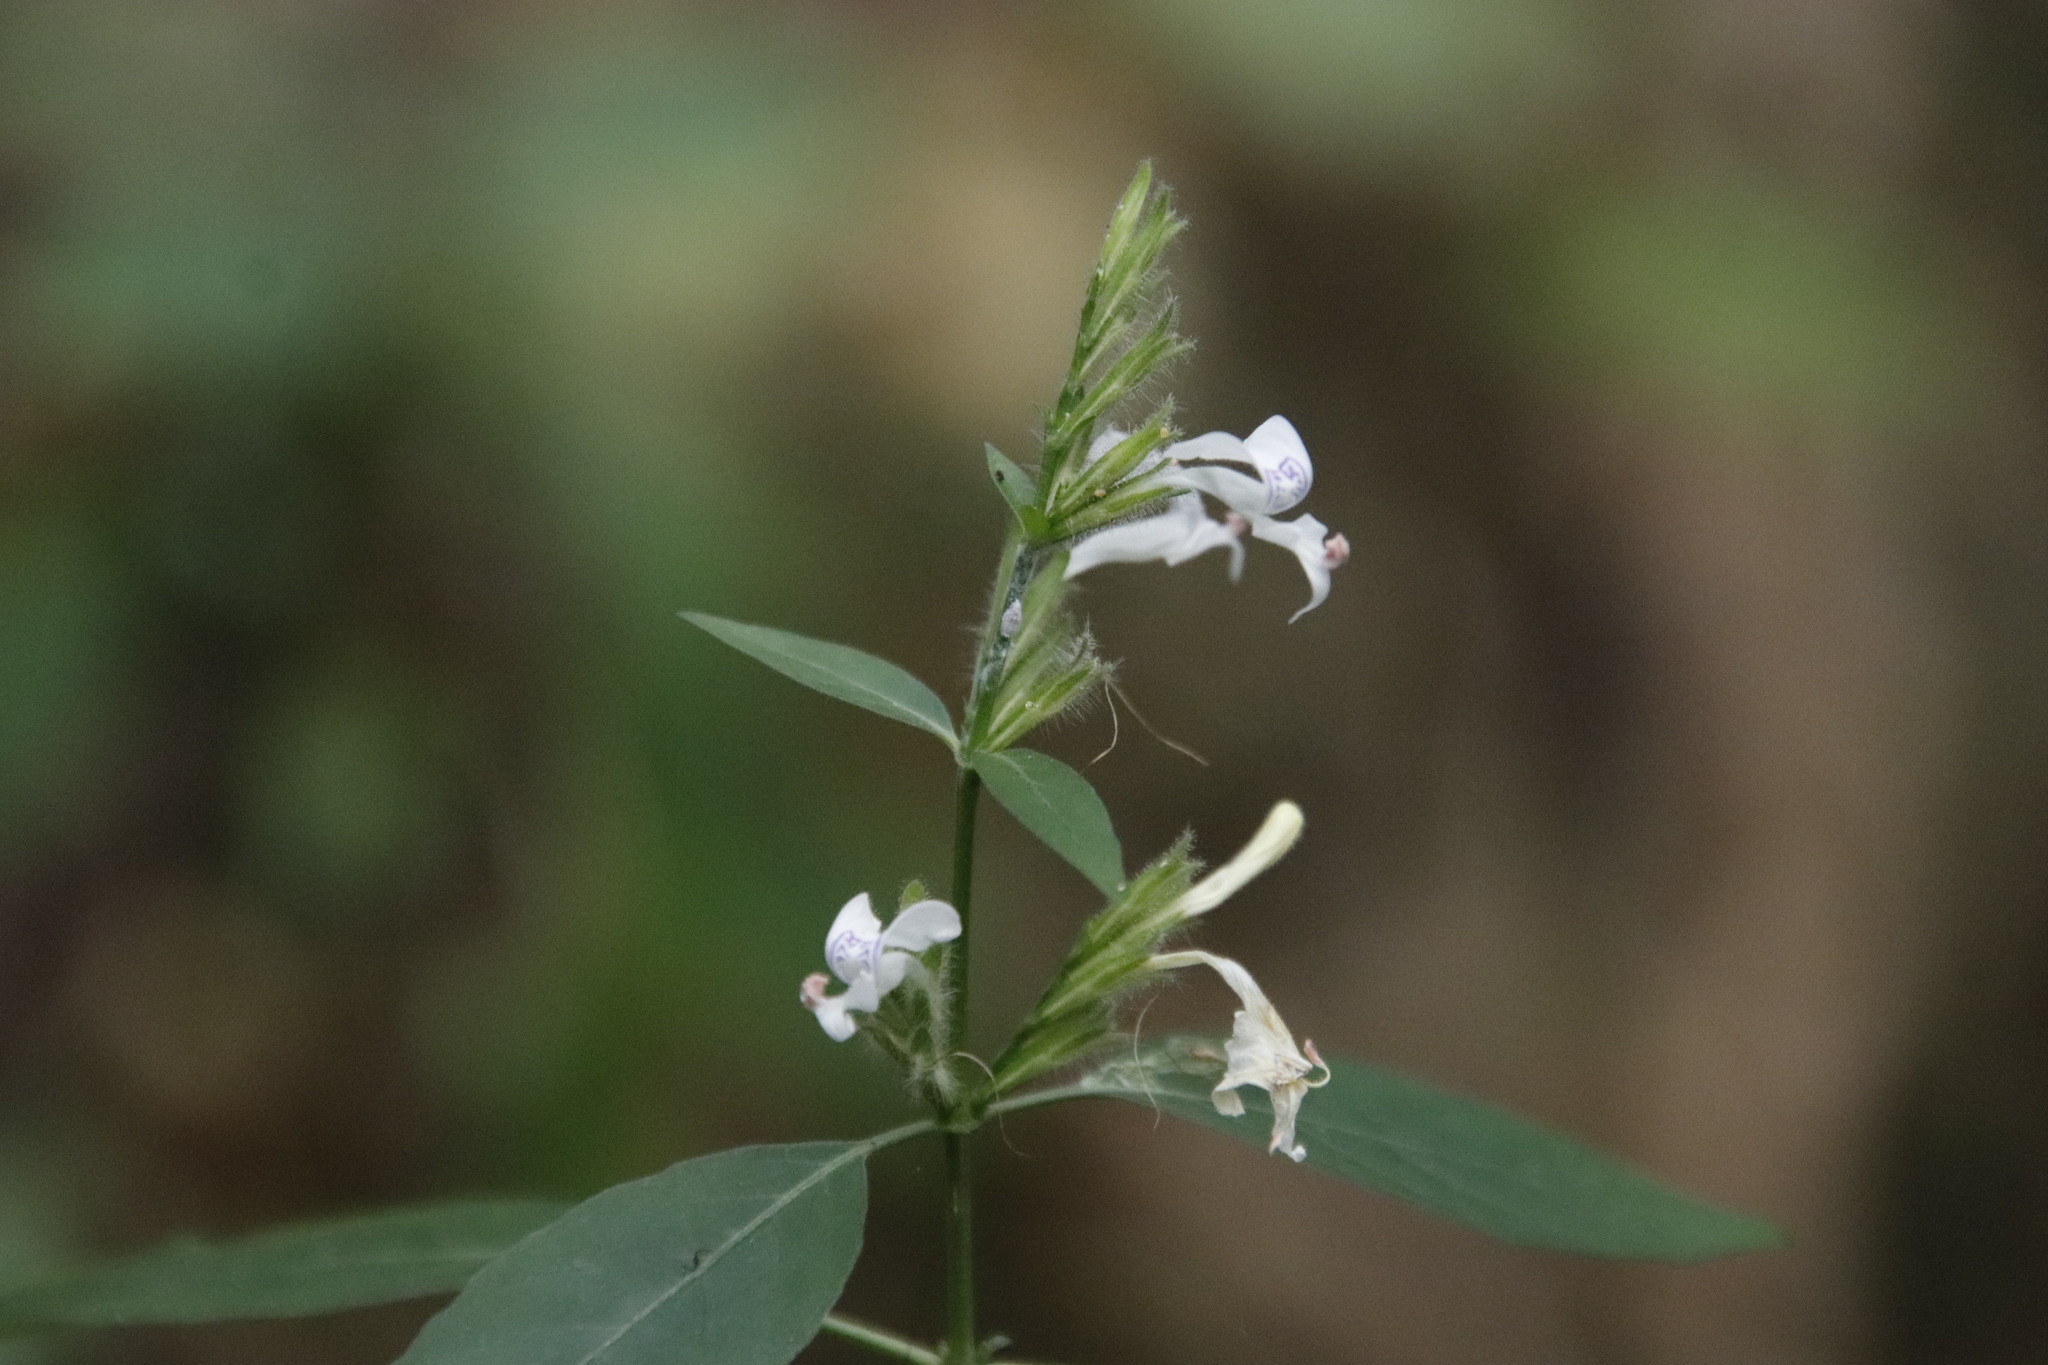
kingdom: Plantae
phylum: Tracheophyta
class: Magnoliopsida
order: Lamiales
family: Acanthaceae
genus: Hypoestes
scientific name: Hypoestes forskaolii
